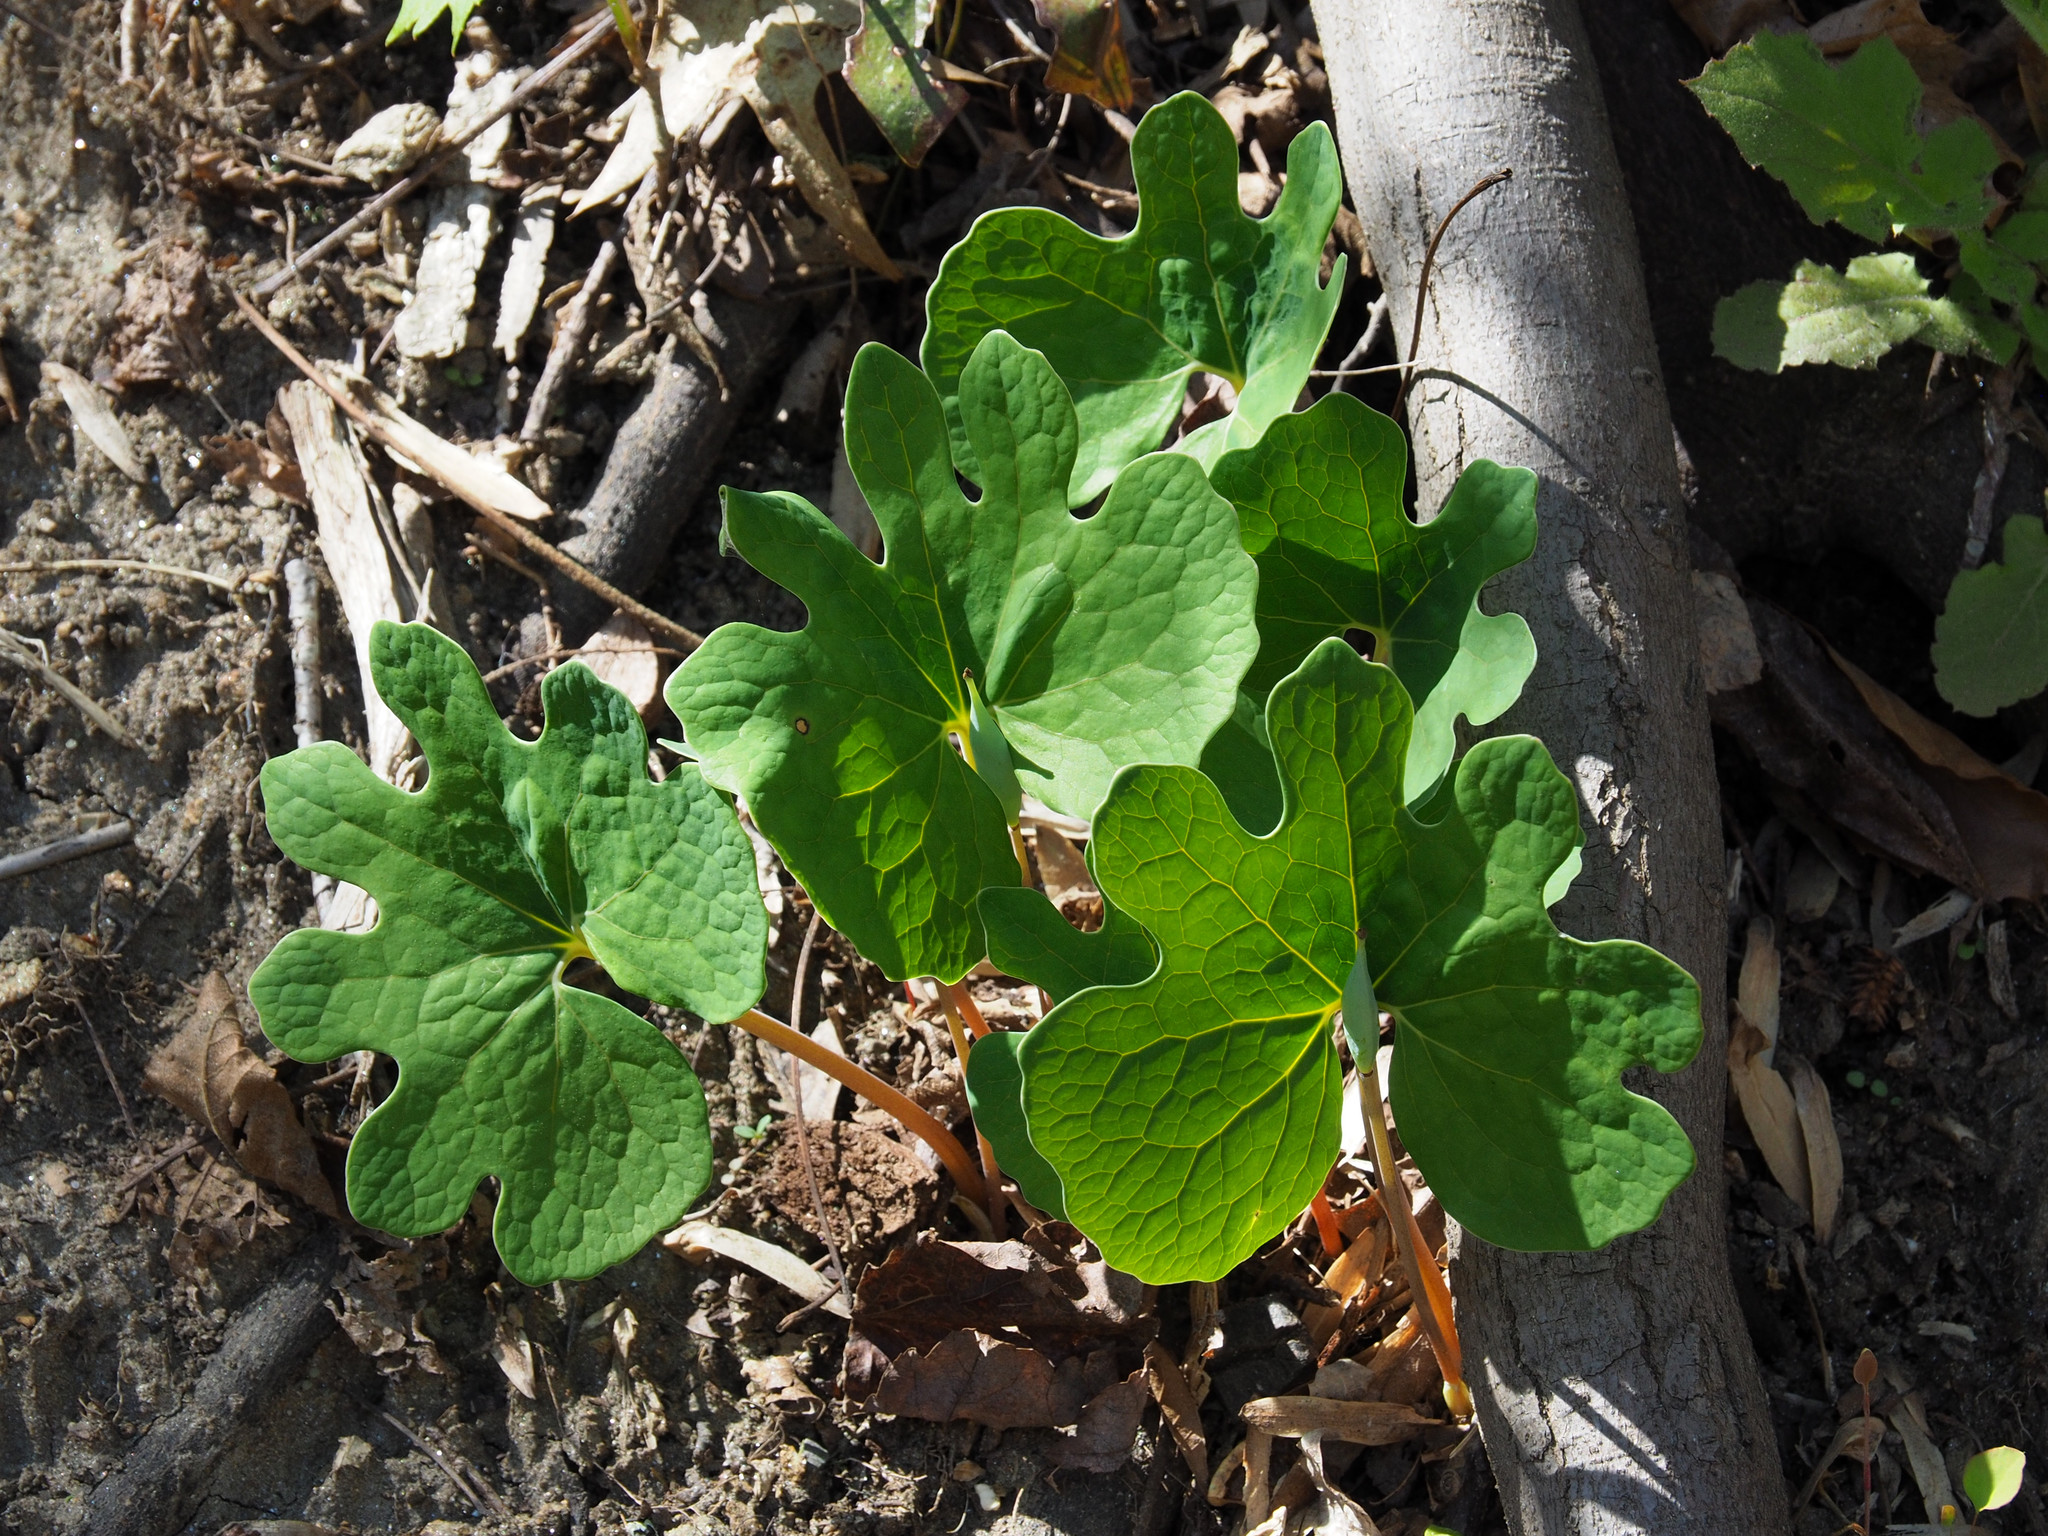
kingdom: Plantae
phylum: Tracheophyta
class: Magnoliopsida
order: Ranunculales
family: Papaveraceae
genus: Sanguinaria
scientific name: Sanguinaria canadensis
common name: Bloodroot
